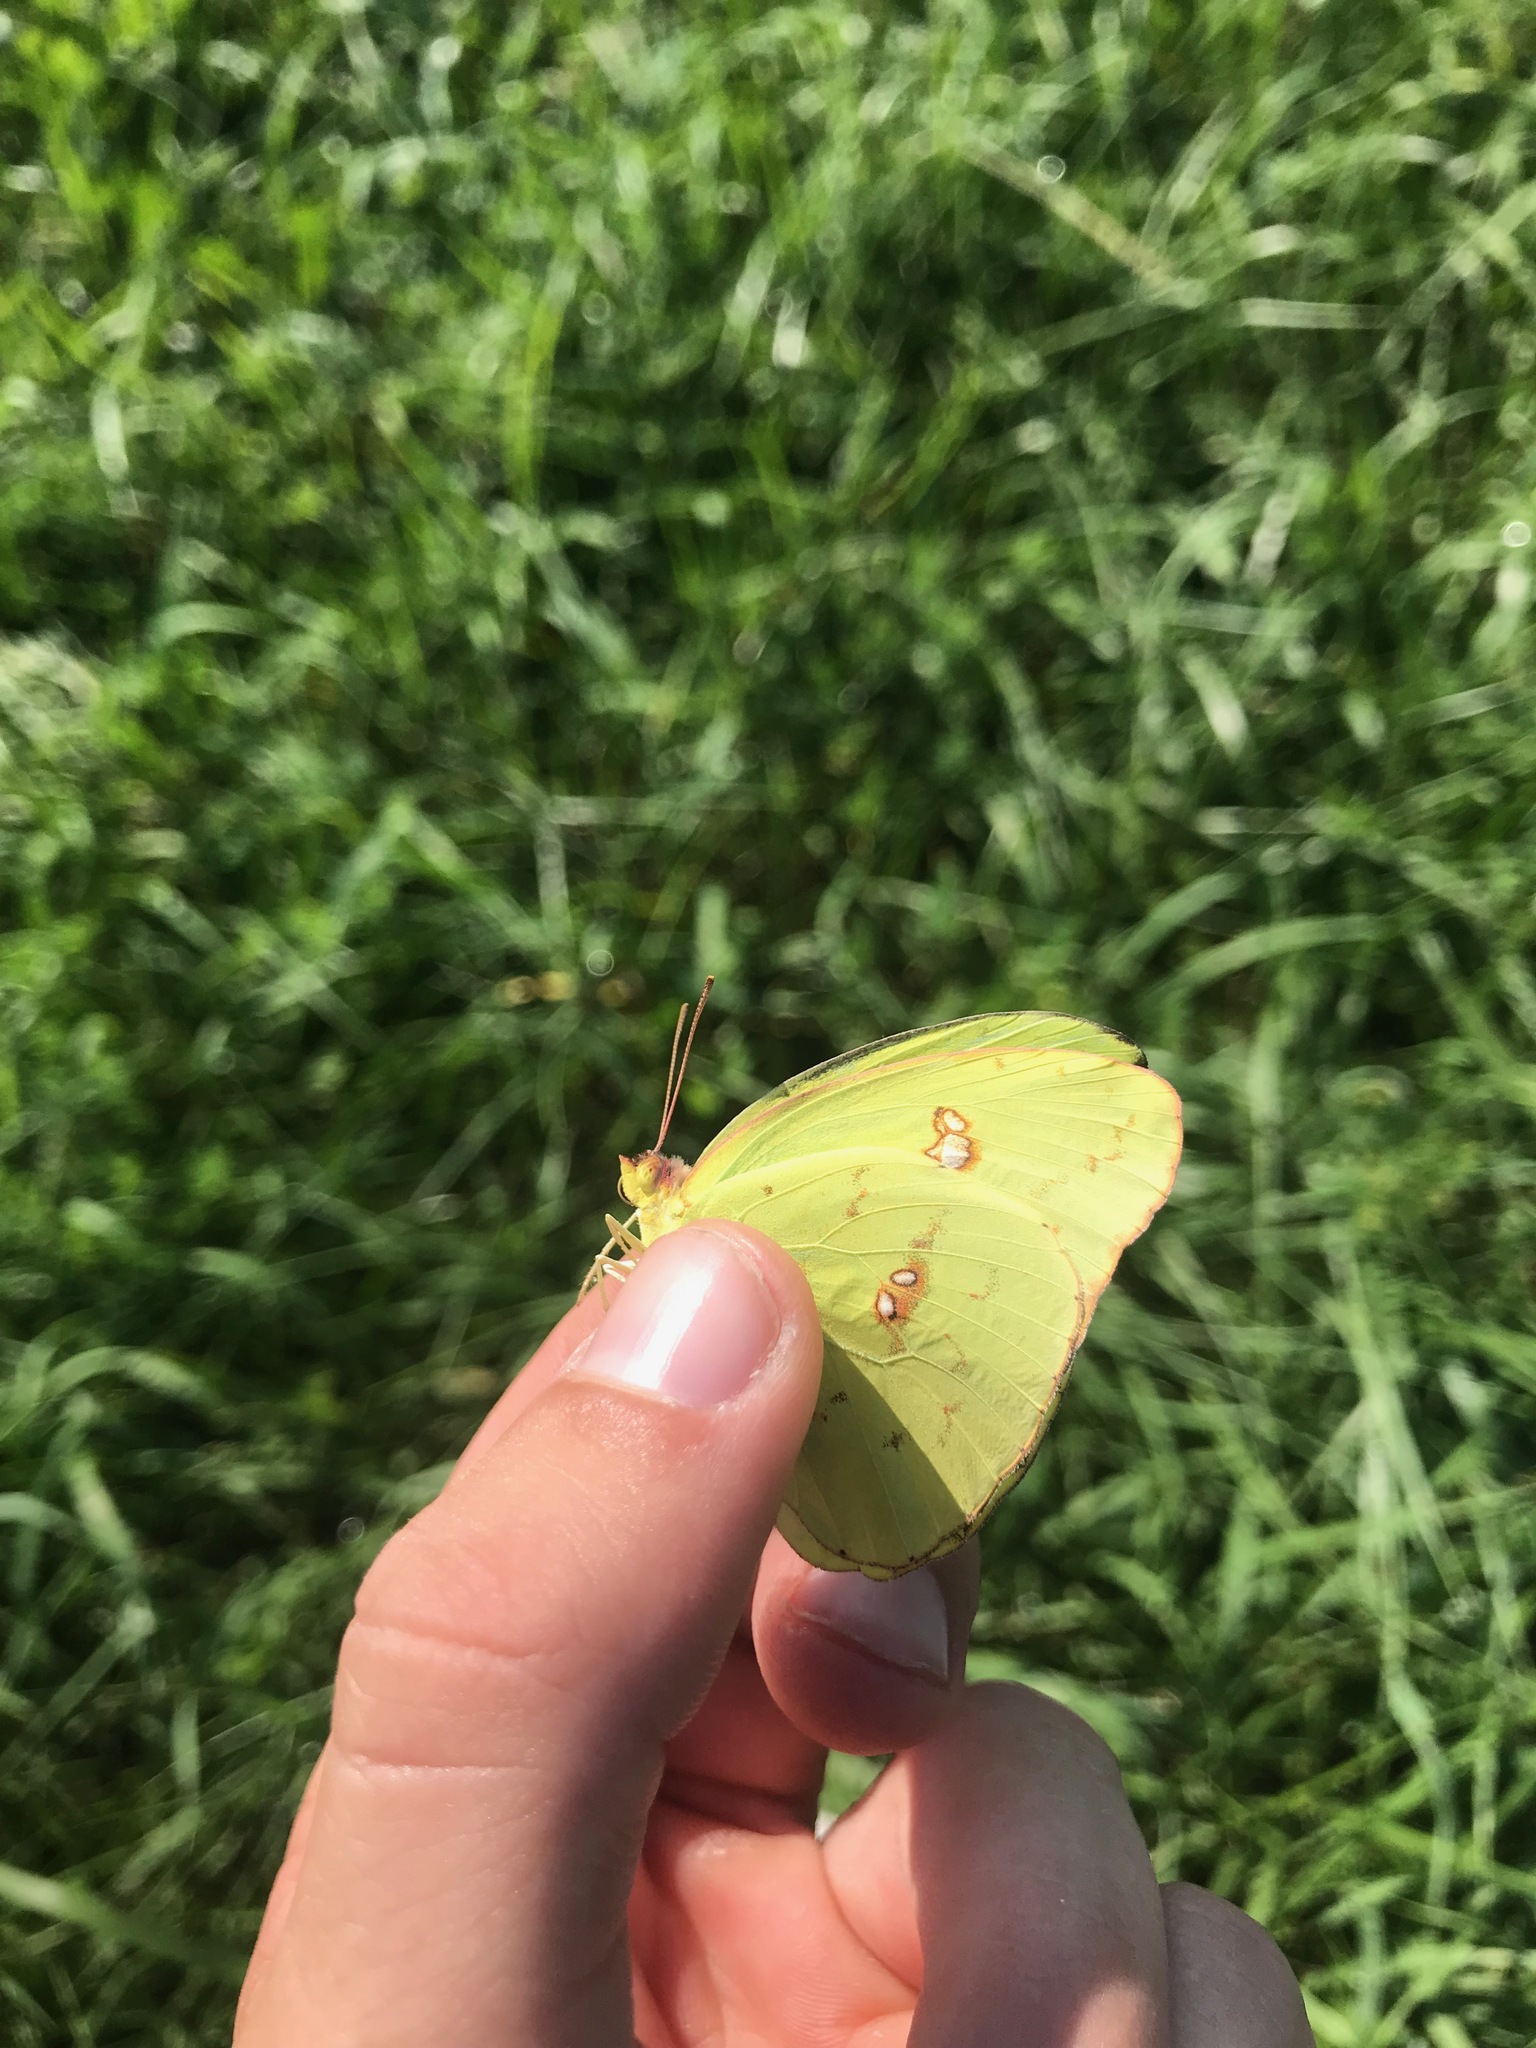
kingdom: Animalia
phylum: Arthropoda
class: Insecta
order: Lepidoptera
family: Pieridae
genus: Phoebis
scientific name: Phoebis sennae
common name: Cloudless sulphur
